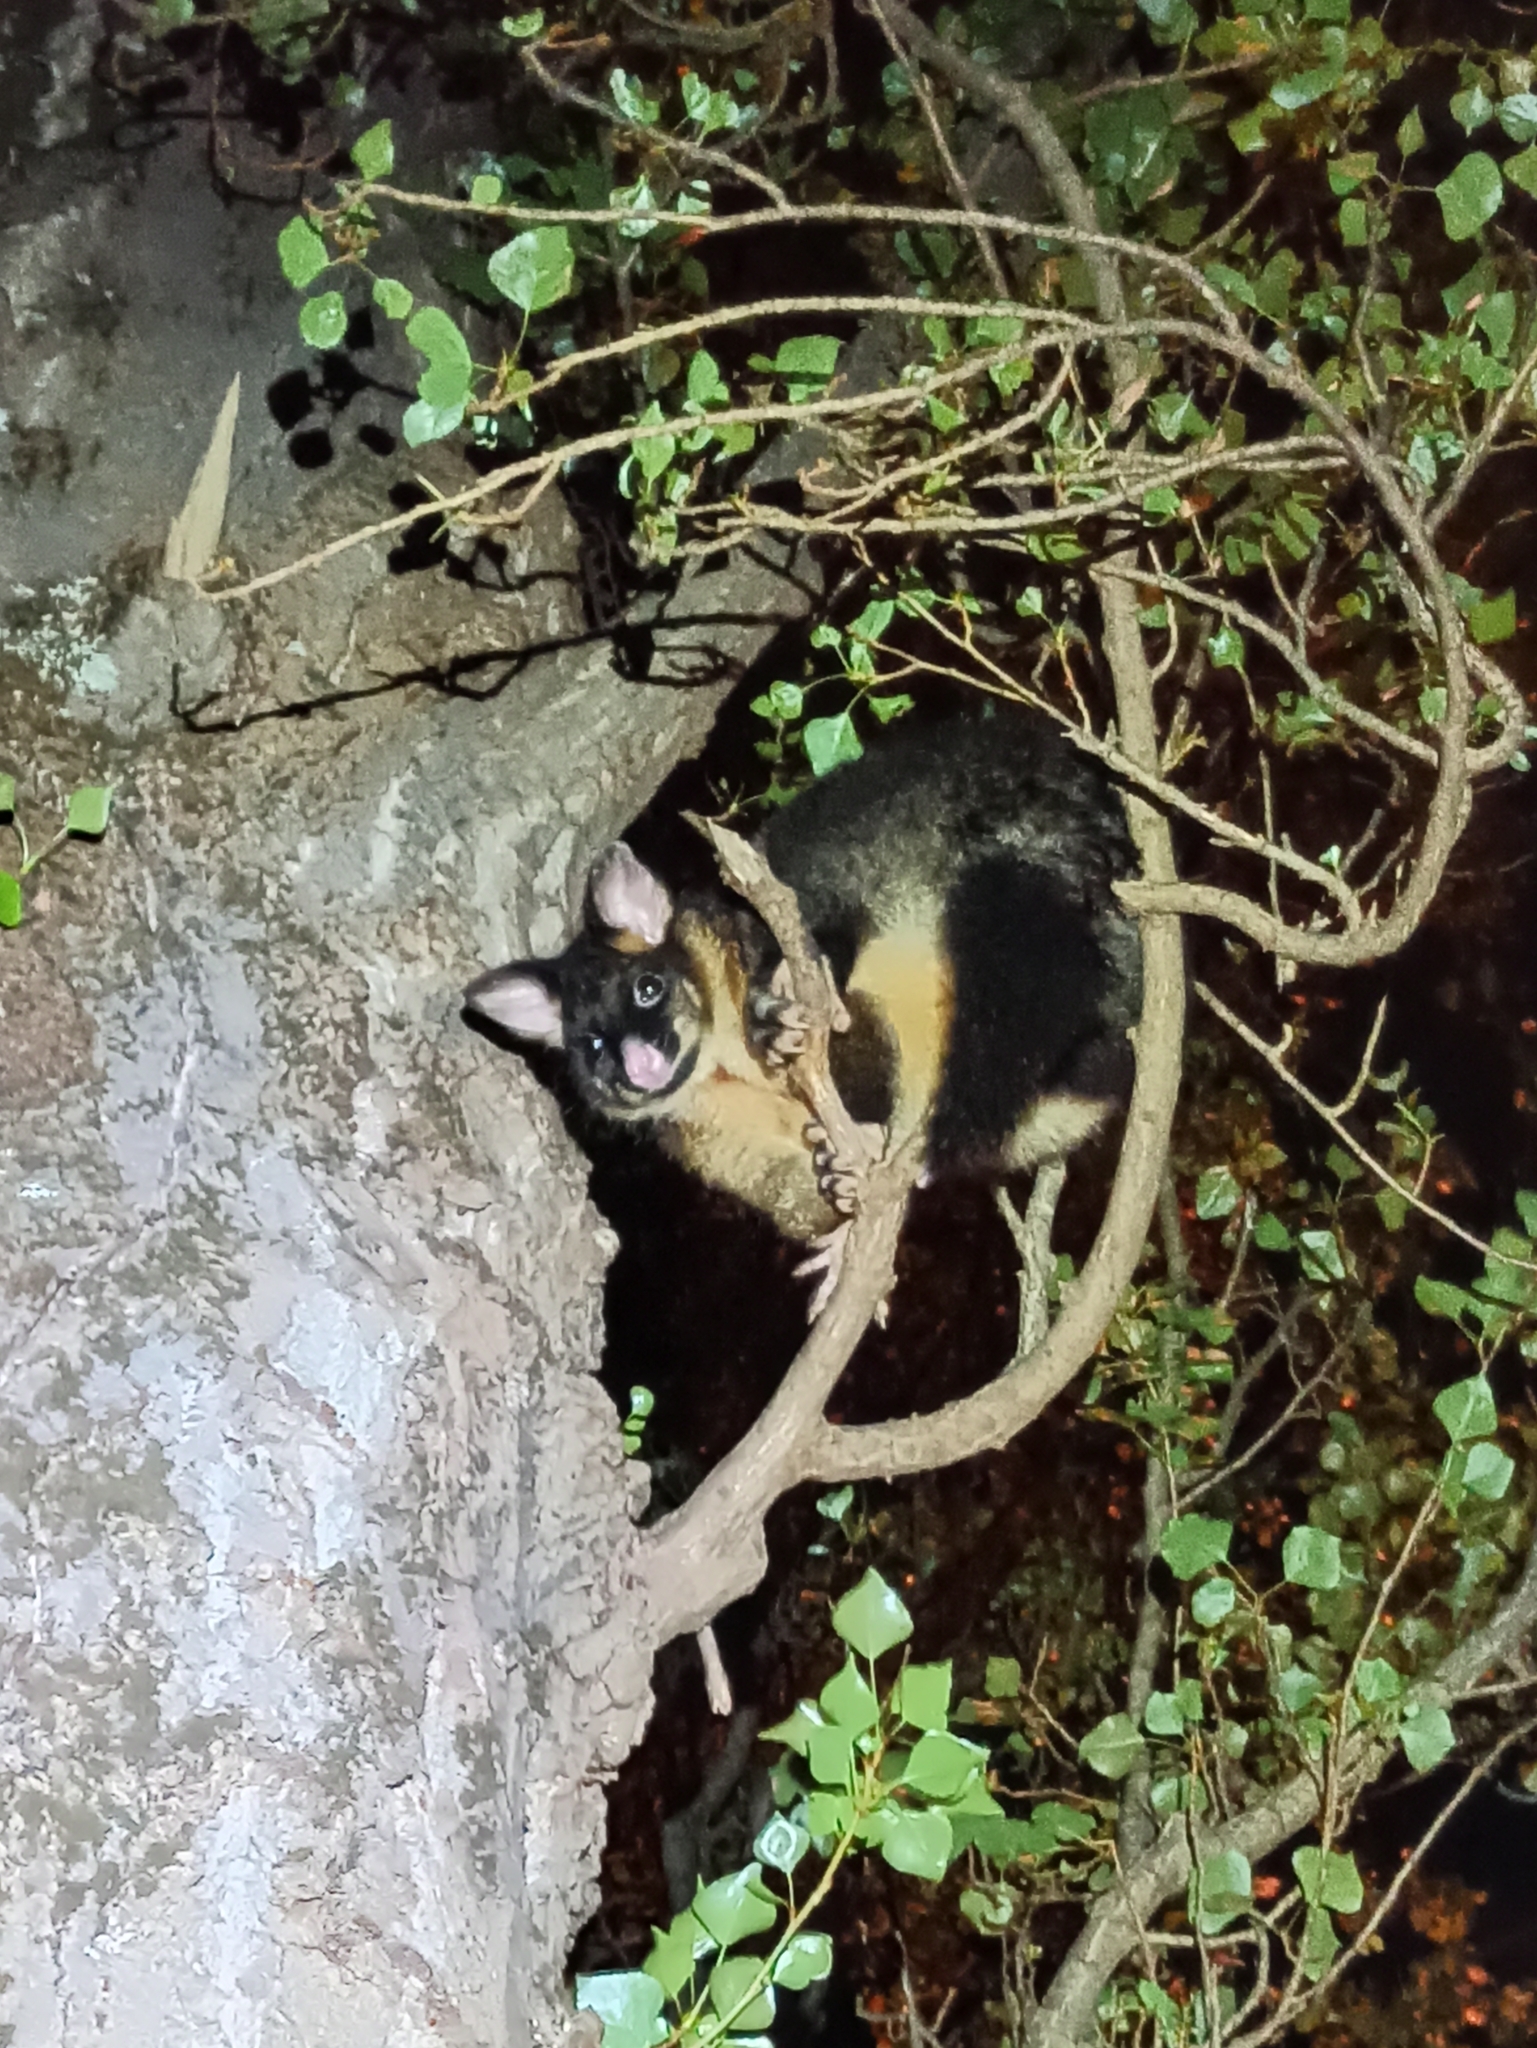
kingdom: Animalia
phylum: Chordata
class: Mammalia
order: Diprotodontia
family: Phalangeridae
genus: Trichosurus
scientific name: Trichosurus vulpecula
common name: Common brushtail
